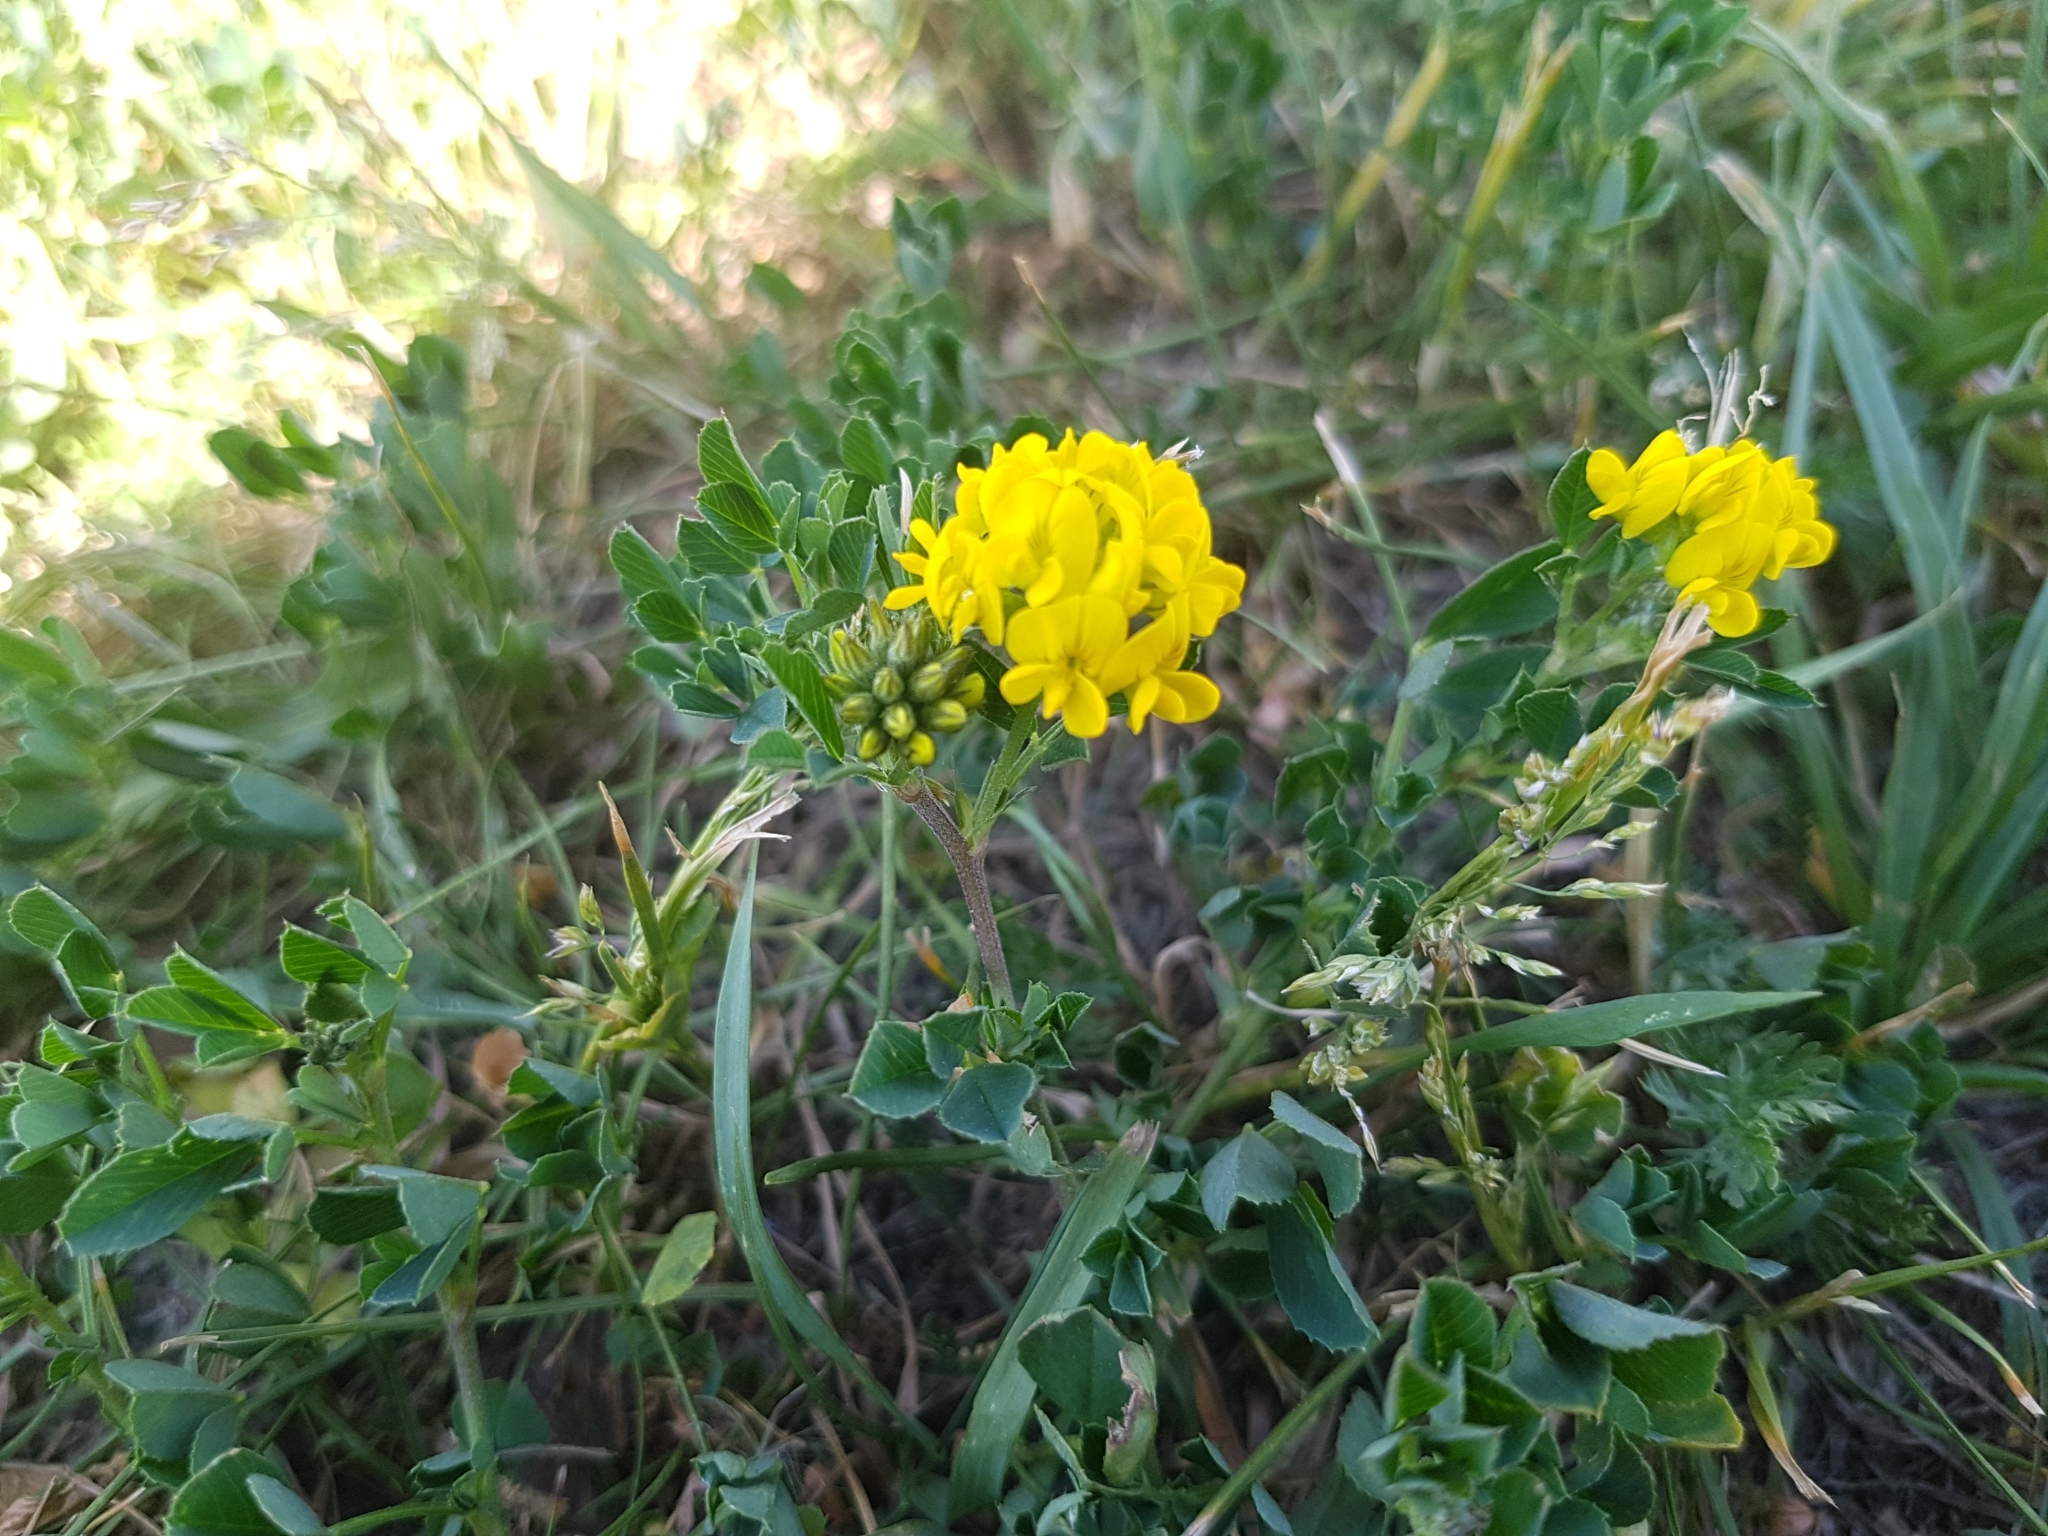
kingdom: Plantae
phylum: Tracheophyta
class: Magnoliopsida
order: Fabales
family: Fabaceae
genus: Medicago
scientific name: Medicago falcata
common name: Sickle medick
